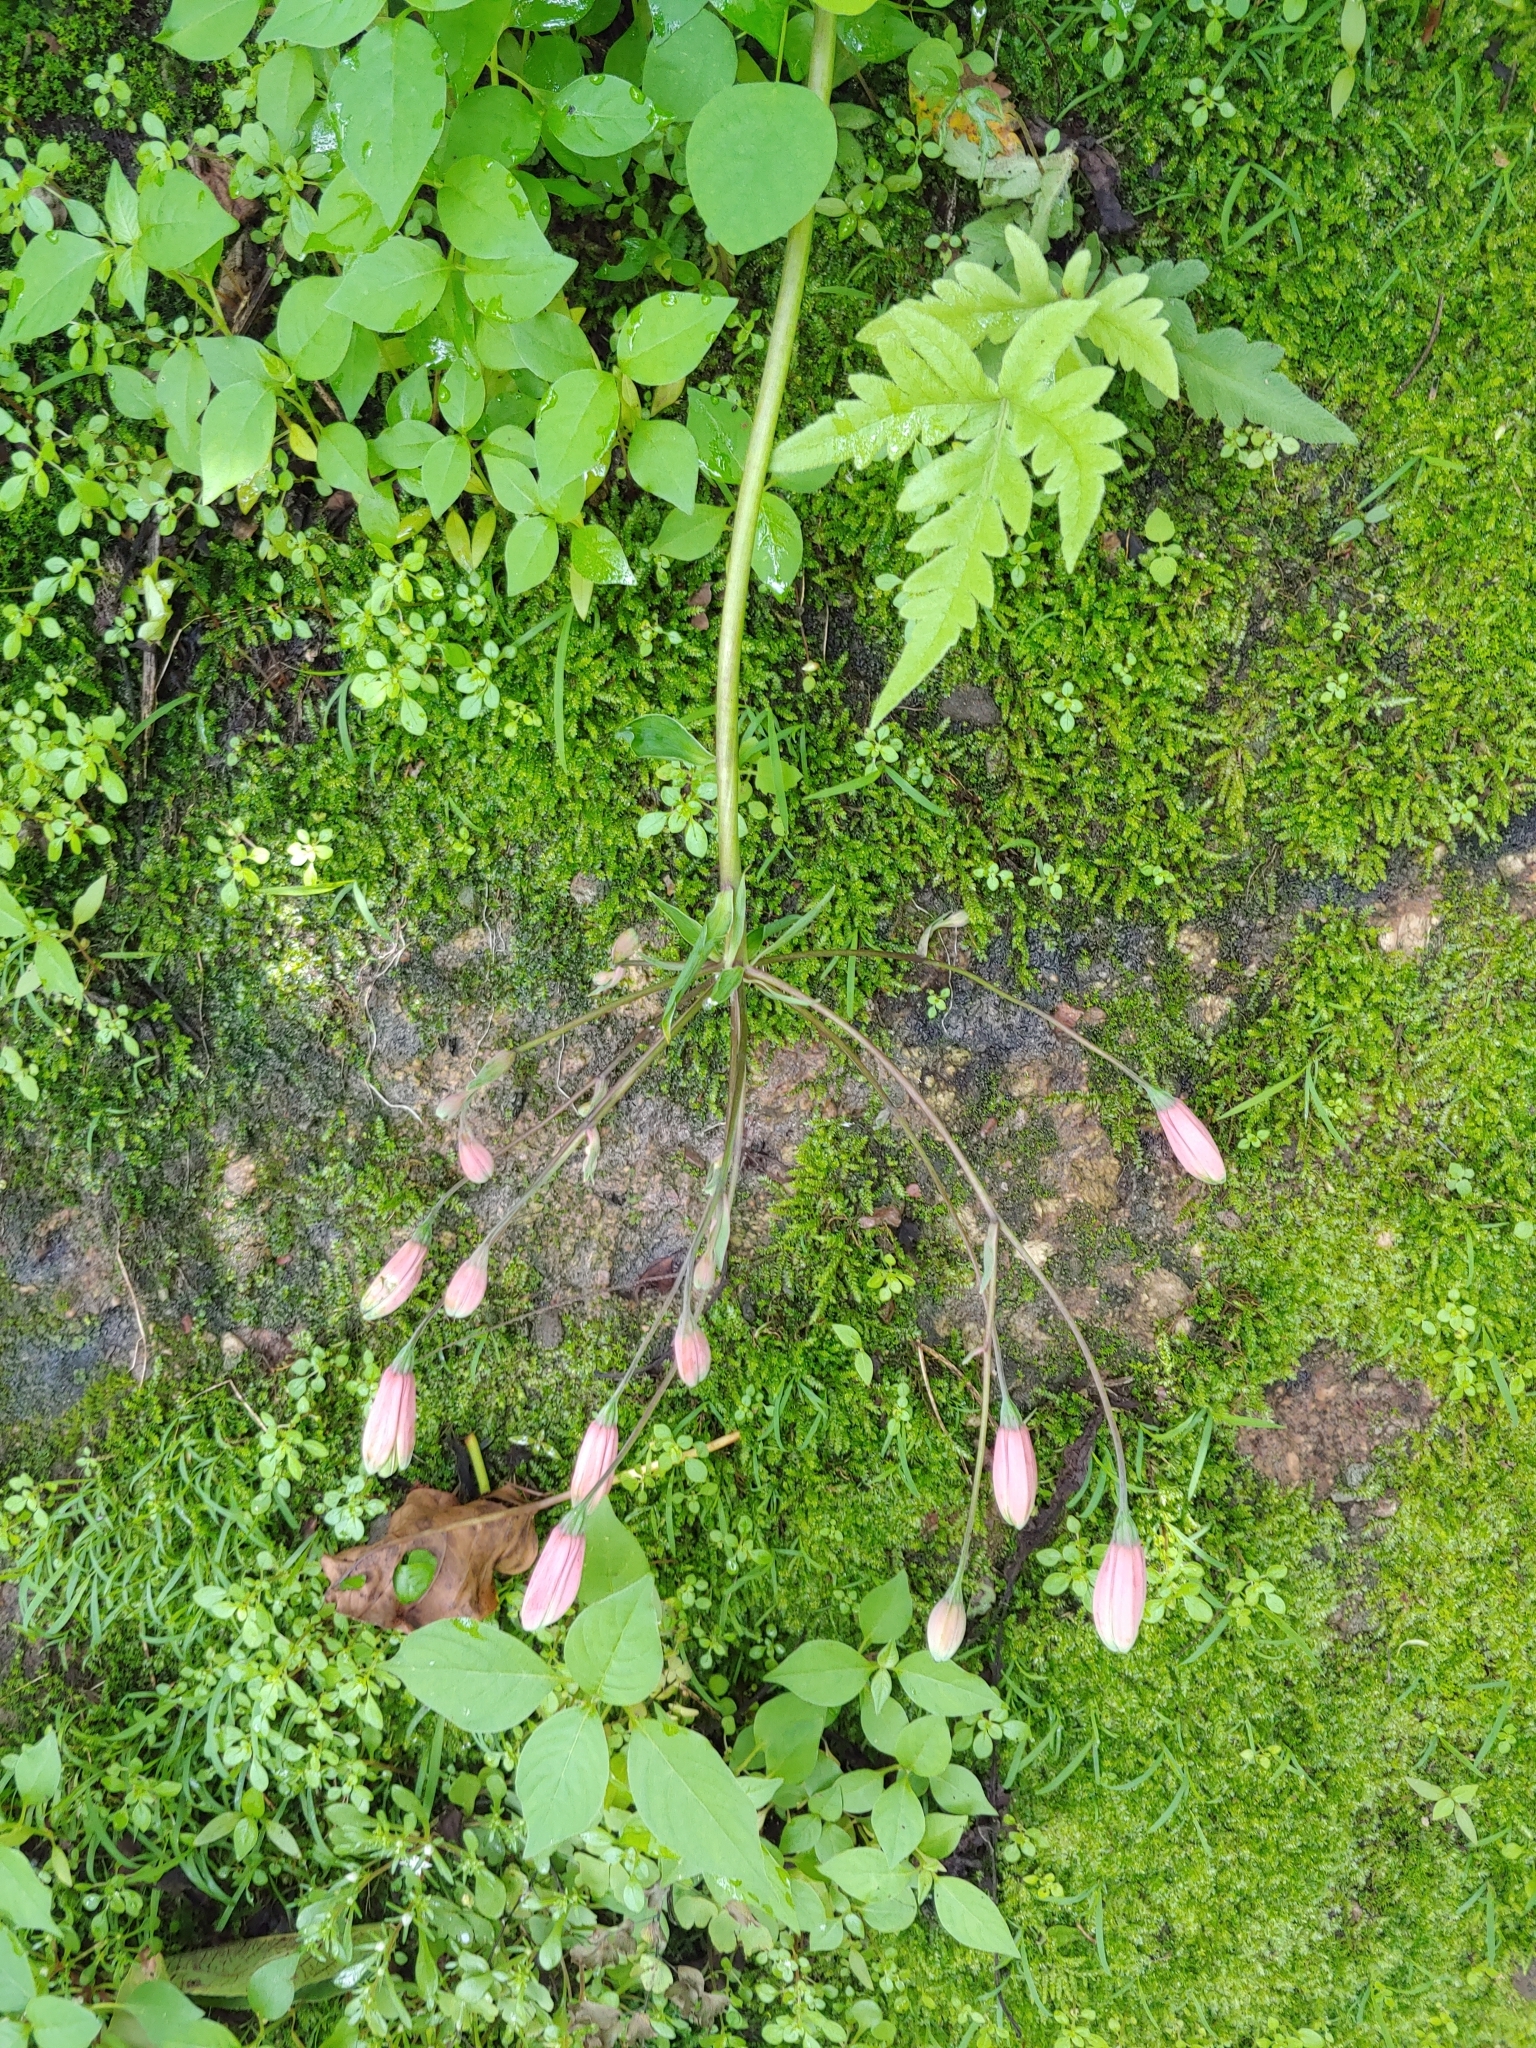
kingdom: Plantae
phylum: Tracheophyta
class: Liliopsida
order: Liliales
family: Alstroemeriaceae
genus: Bomarea
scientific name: Bomarea edulis
